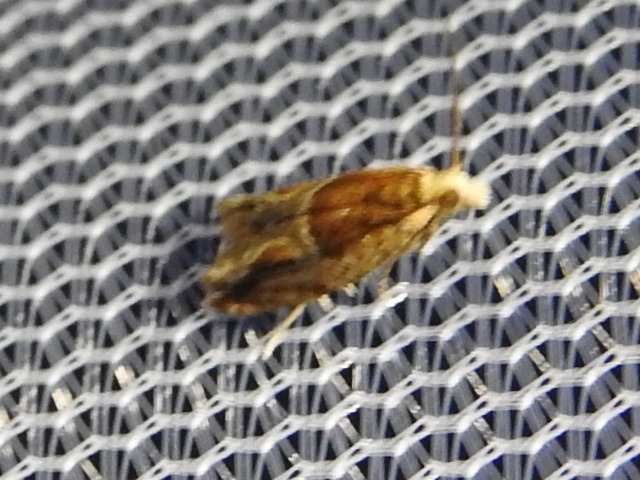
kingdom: Animalia
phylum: Arthropoda
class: Insecta
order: Lepidoptera
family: Tortricidae
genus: Ancylis
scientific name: Ancylis comptana
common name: Little roller
